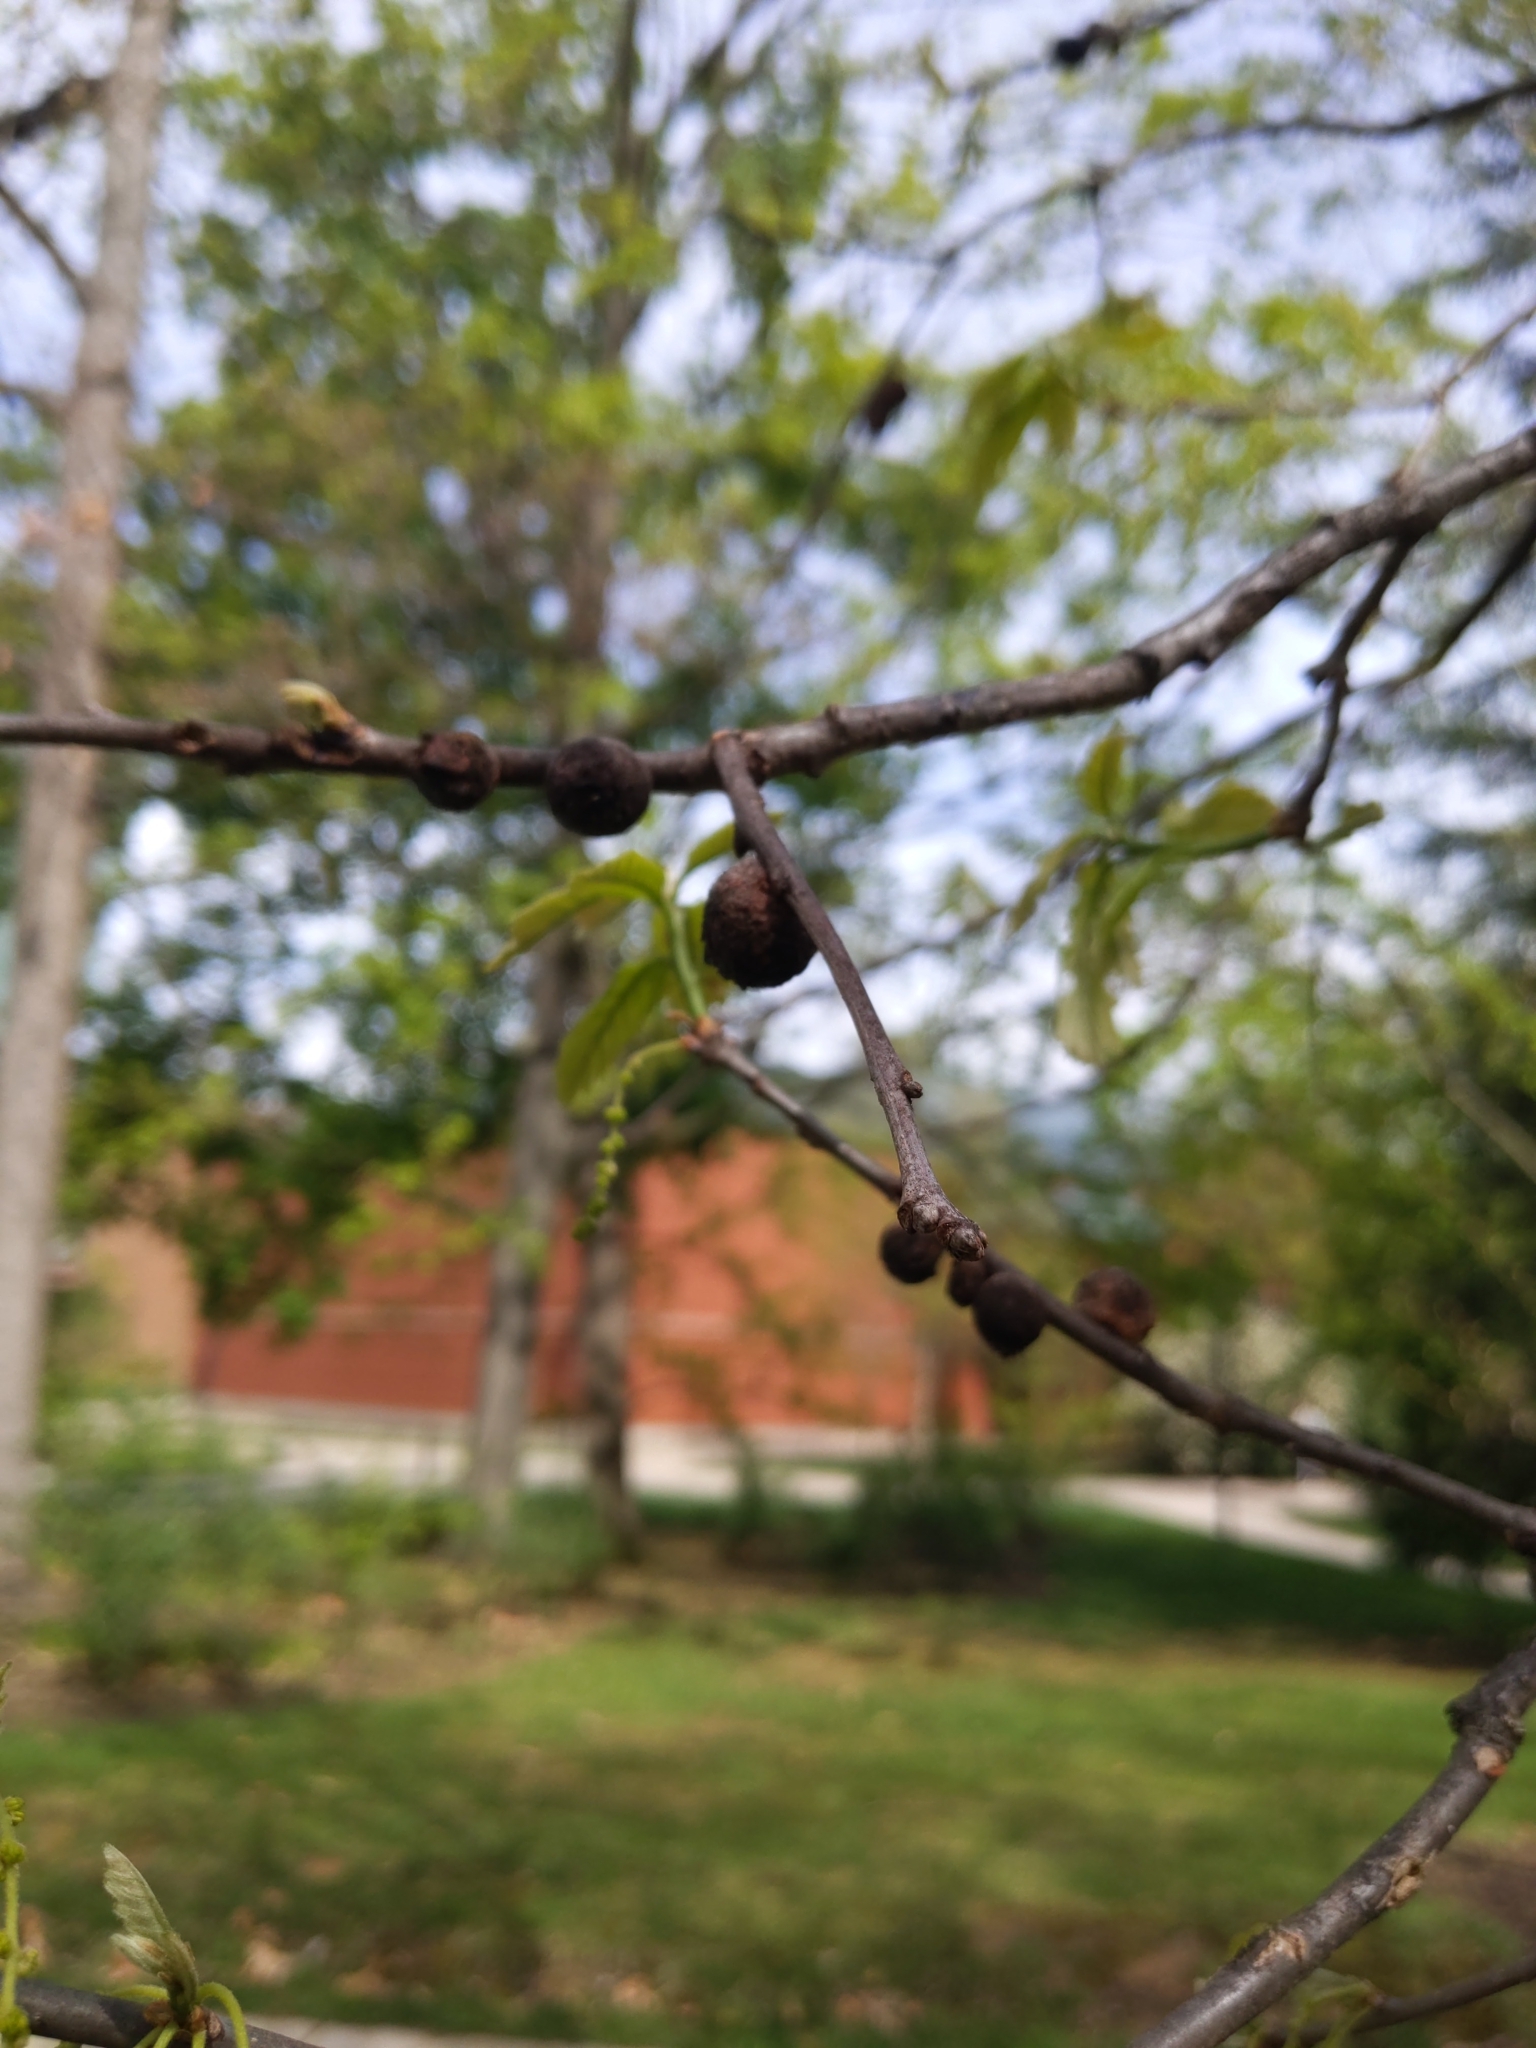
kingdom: Animalia
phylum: Arthropoda
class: Insecta
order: Hymenoptera
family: Cynipidae
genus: Disholcaspis
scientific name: Disholcaspis
